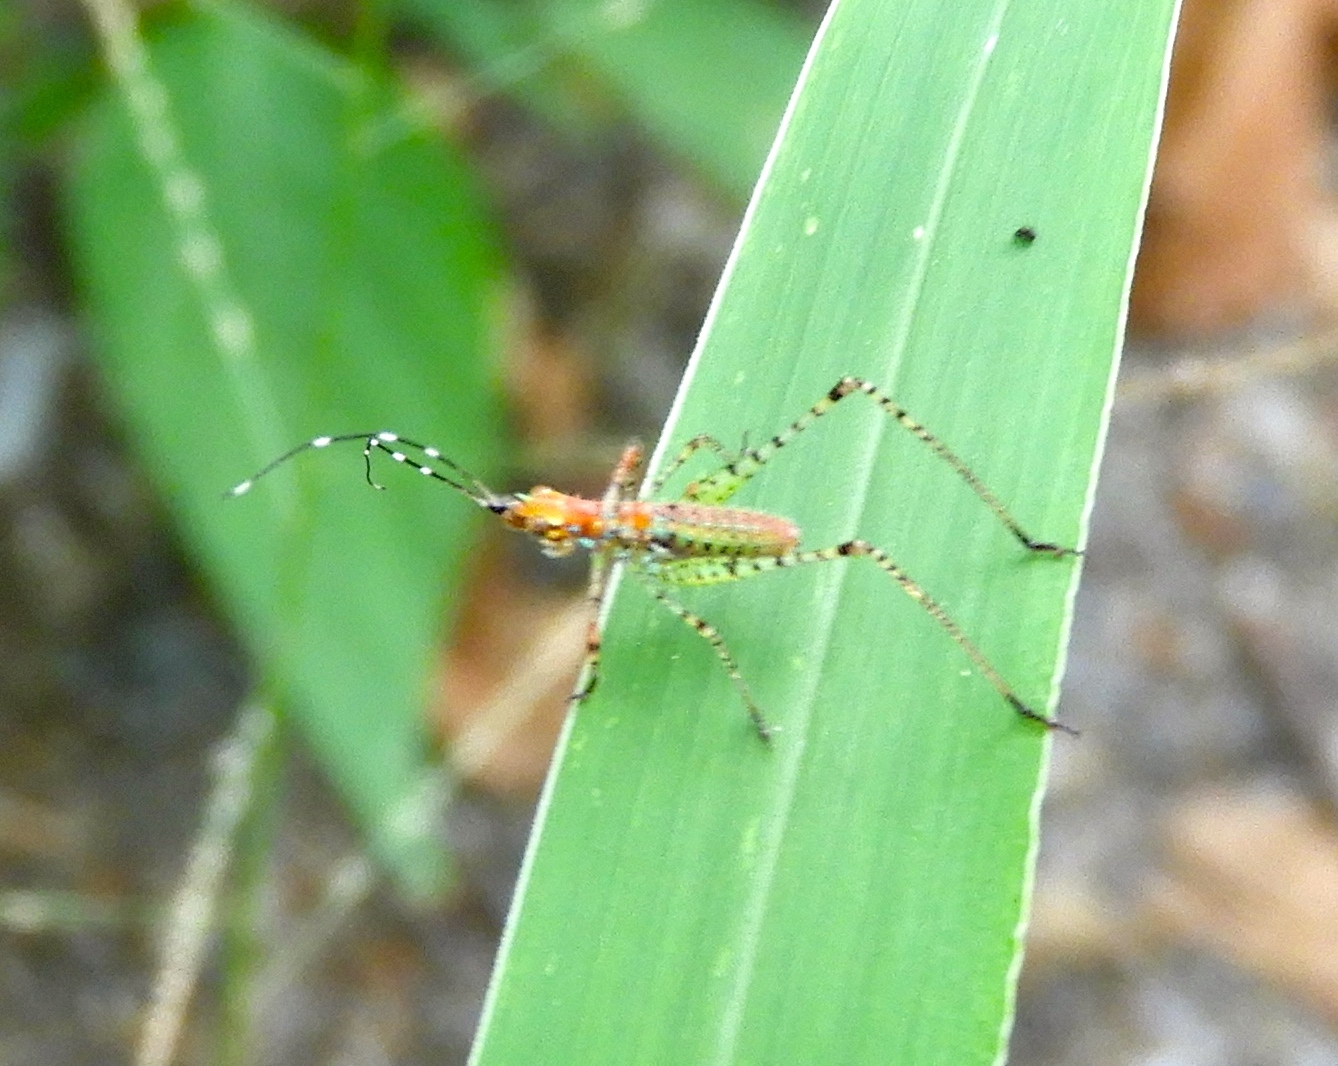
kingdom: Animalia
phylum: Arthropoda
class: Insecta
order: Orthoptera
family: Tettigoniidae
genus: Scudderia
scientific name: Scudderia
